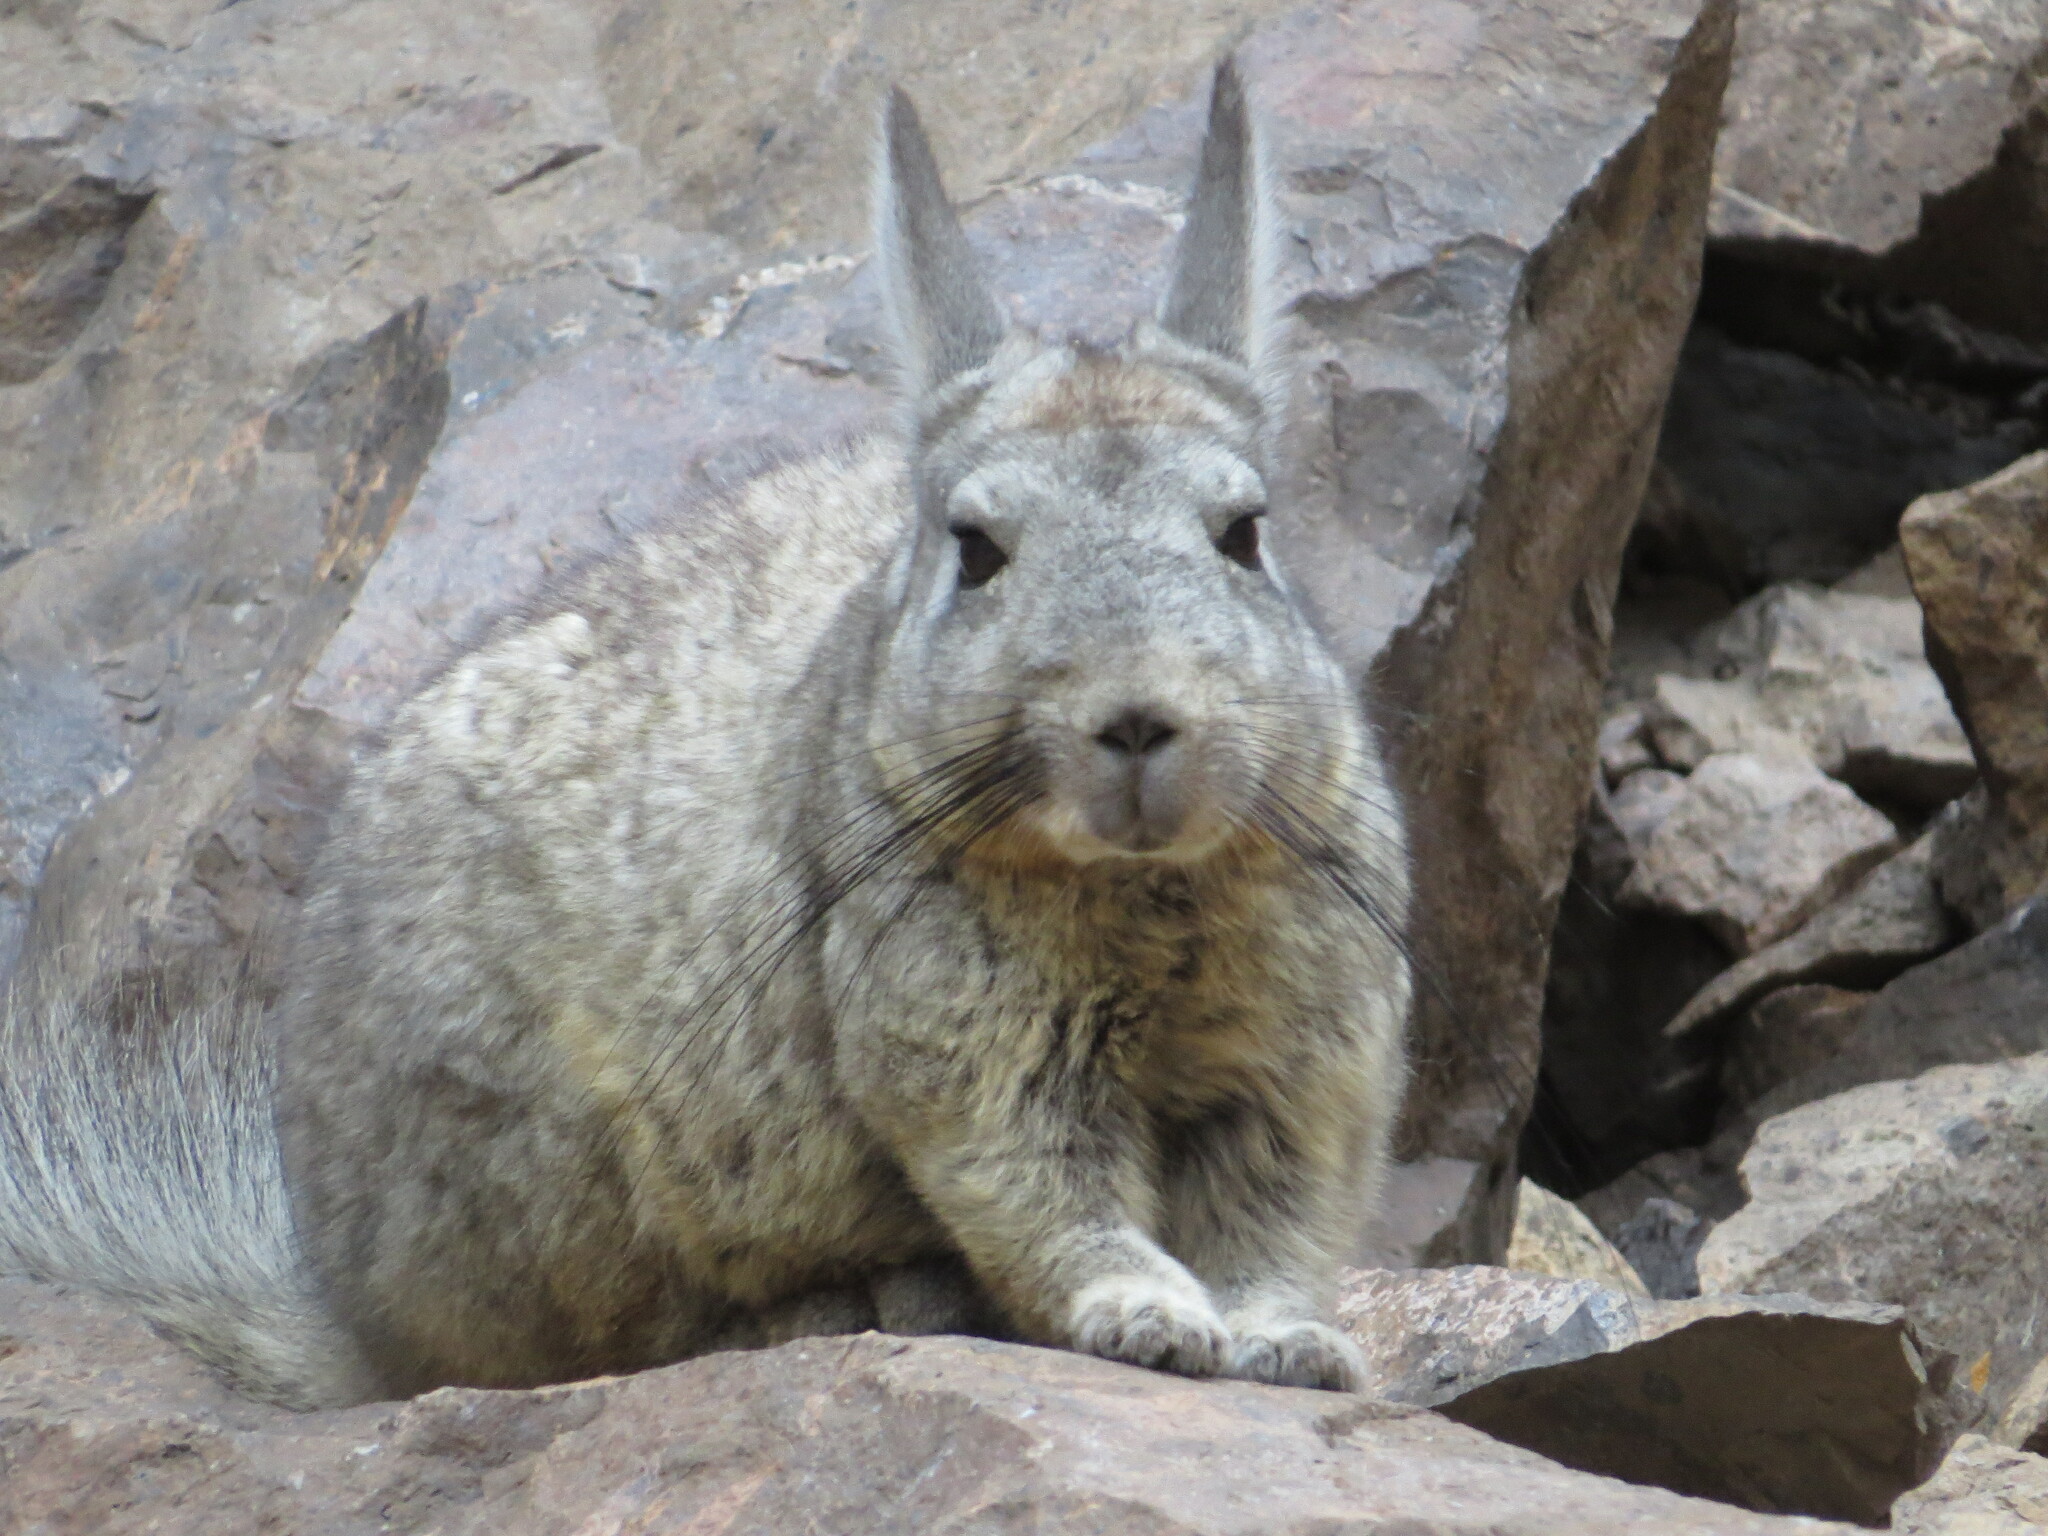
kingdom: Animalia
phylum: Chordata
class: Mammalia
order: Rodentia
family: Chinchillidae
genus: Lagidium
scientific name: Lagidium viscacia
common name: Southern viscacha
